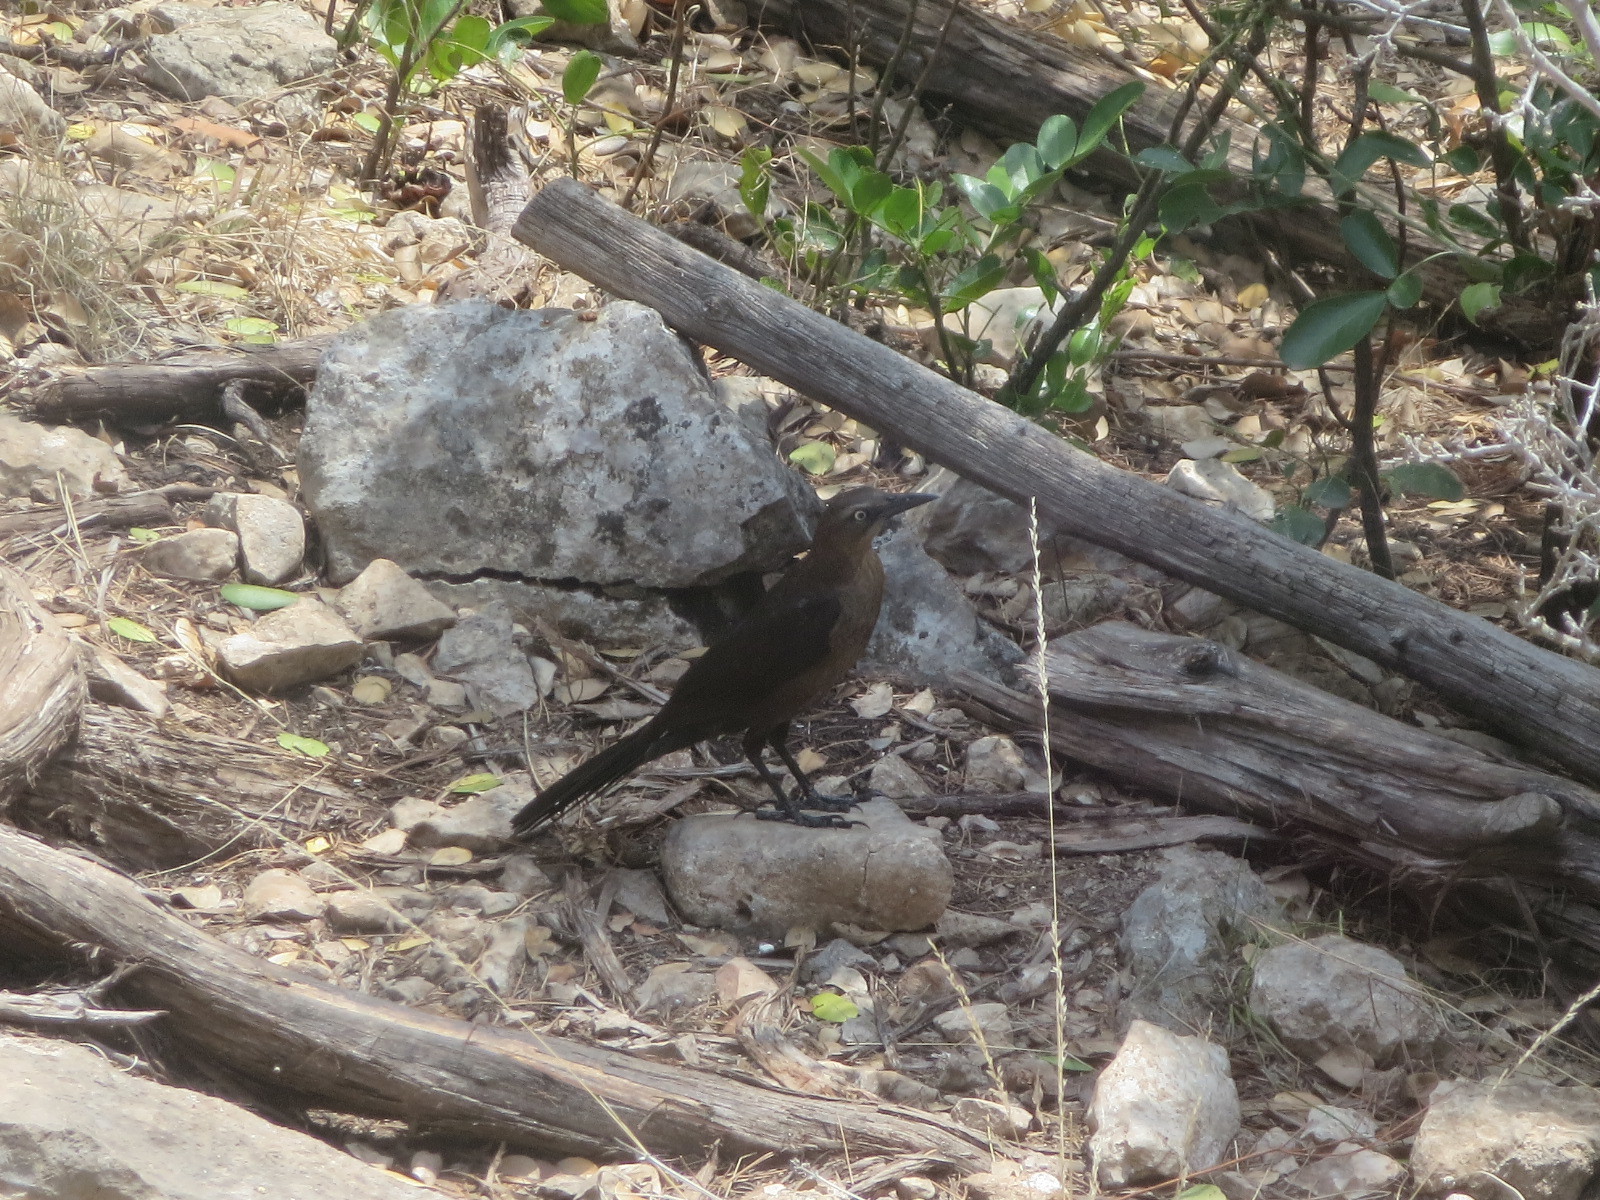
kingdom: Animalia
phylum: Chordata
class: Aves
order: Passeriformes
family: Icteridae
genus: Quiscalus
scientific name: Quiscalus mexicanus
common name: Great-tailed grackle
